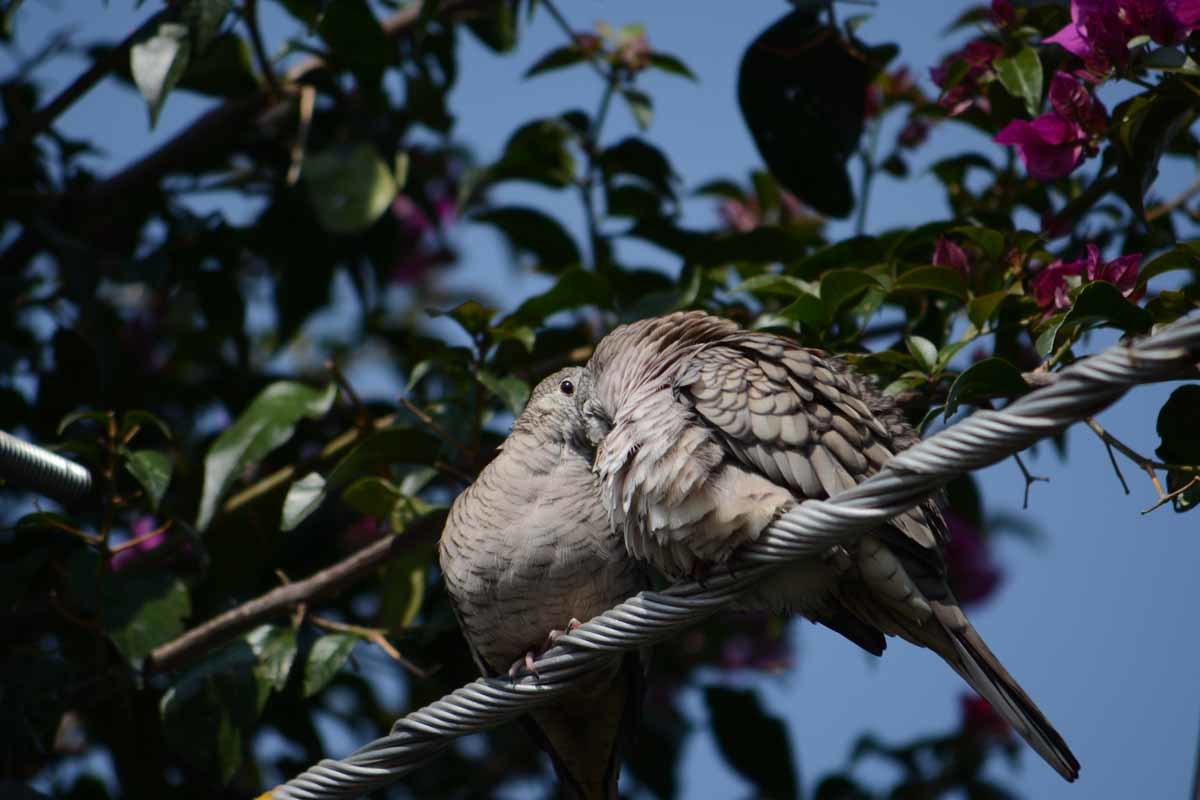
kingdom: Animalia
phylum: Chordata
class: Aves
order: Columbiformes
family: Columbidae
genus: Columbina
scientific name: Columbina inca
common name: Inca dove
